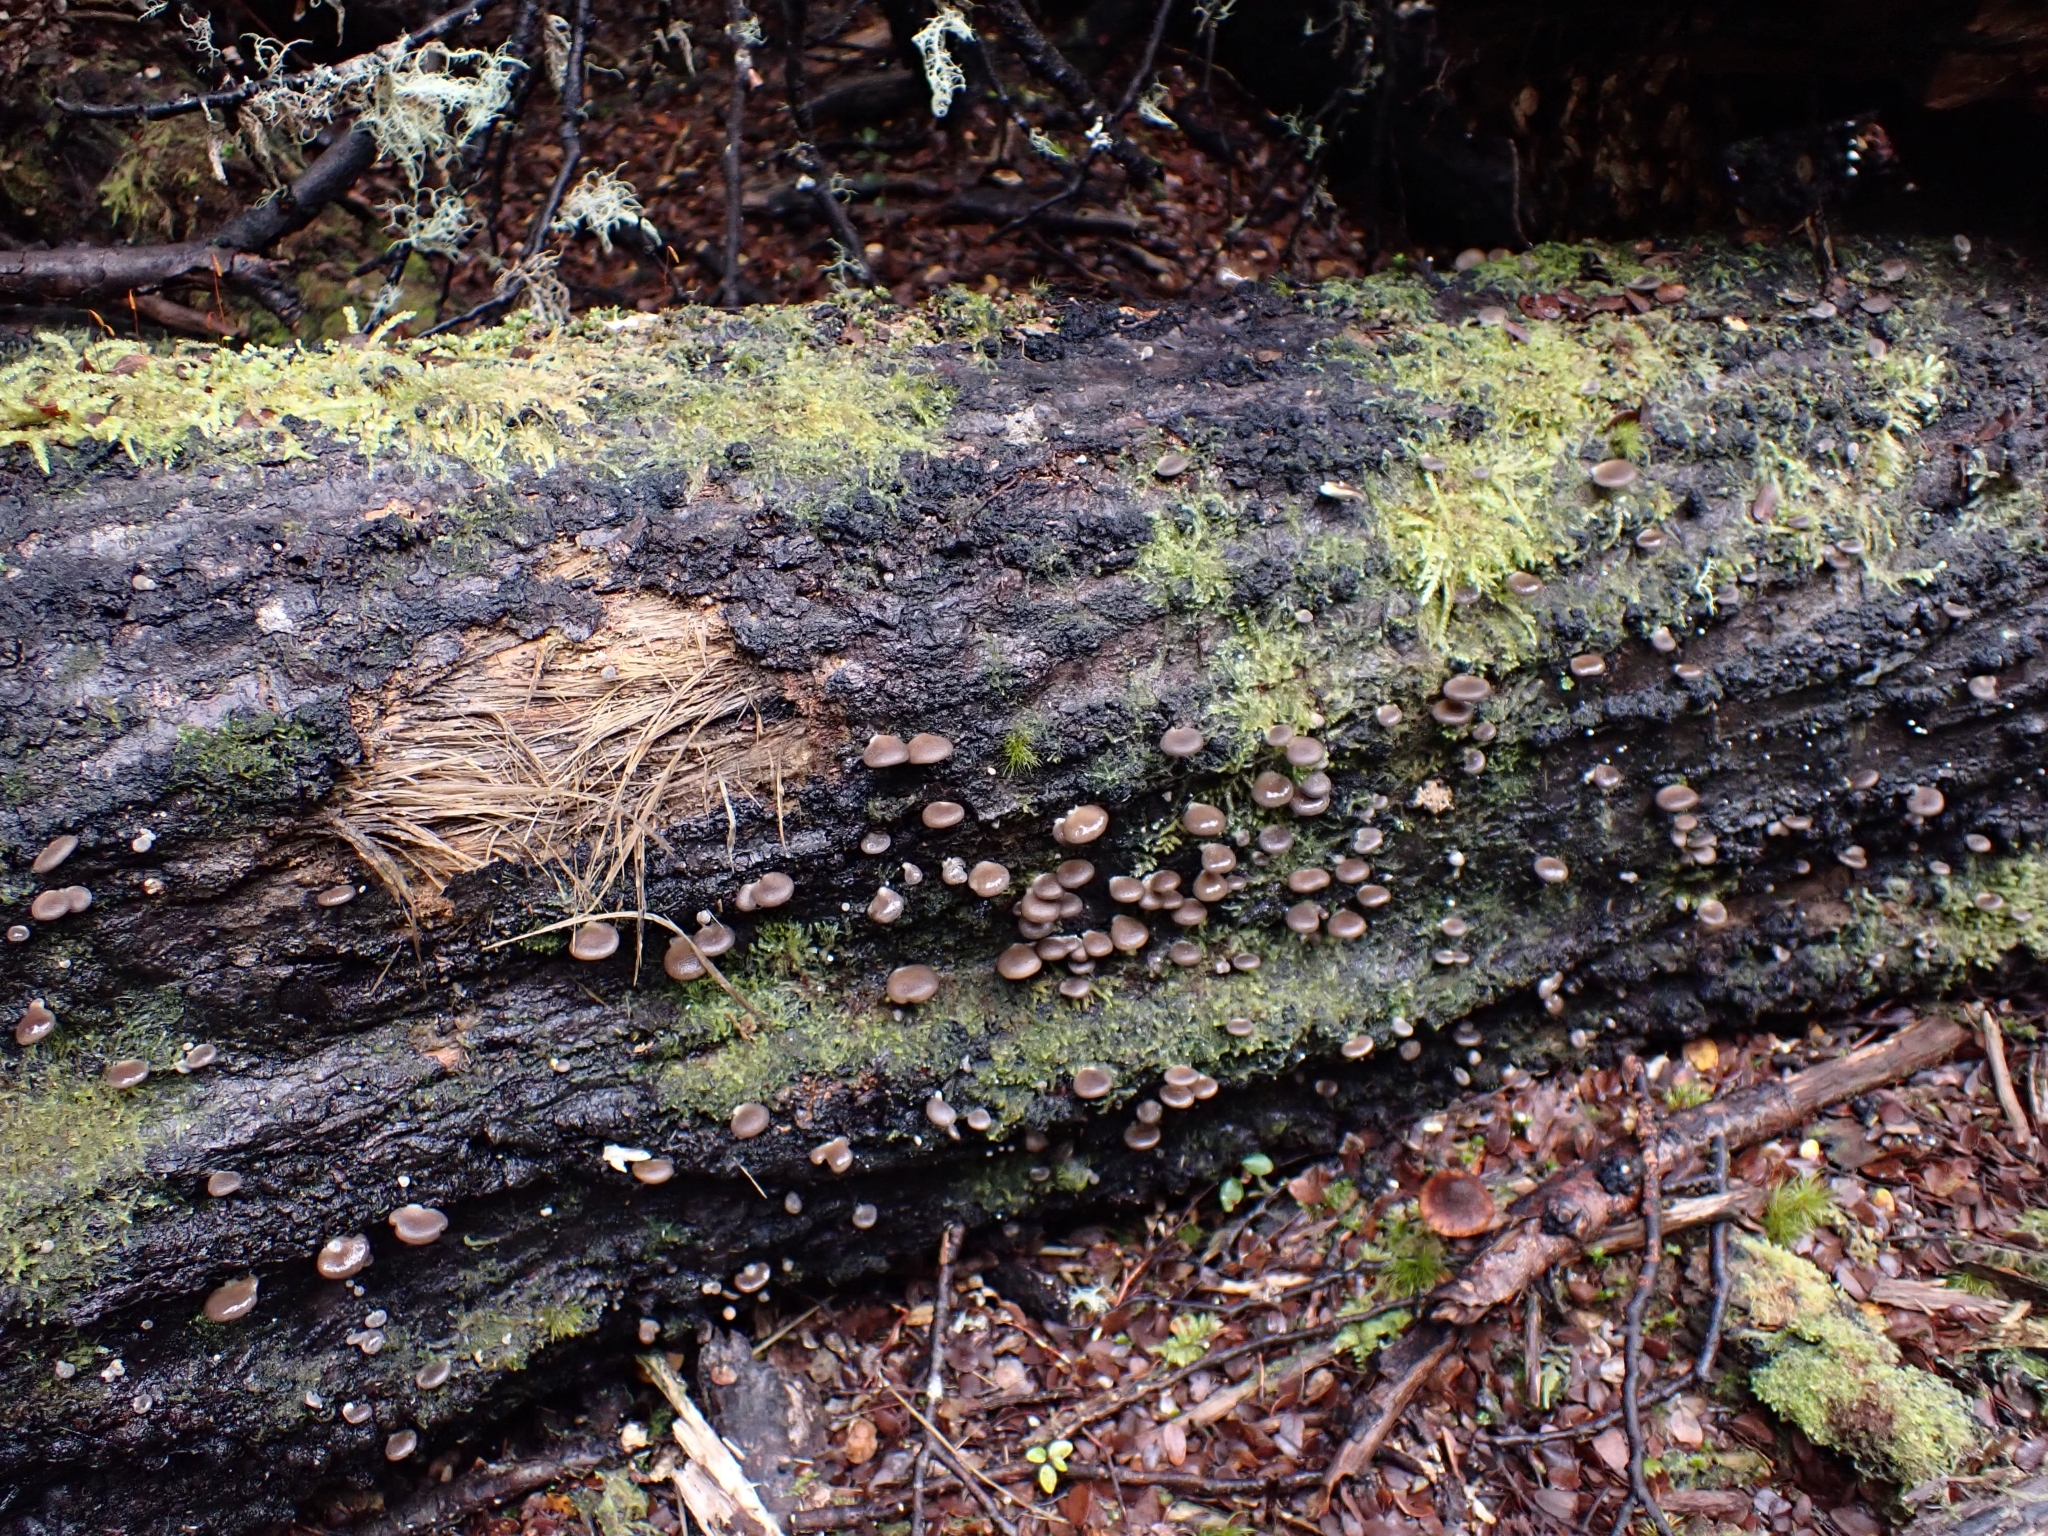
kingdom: Fungi
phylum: Basidiomycota
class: Agaricomycetes
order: Agaricales
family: Pleurotaceae
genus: Pleurotus
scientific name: Pleurotus purpureo-olivaceus
